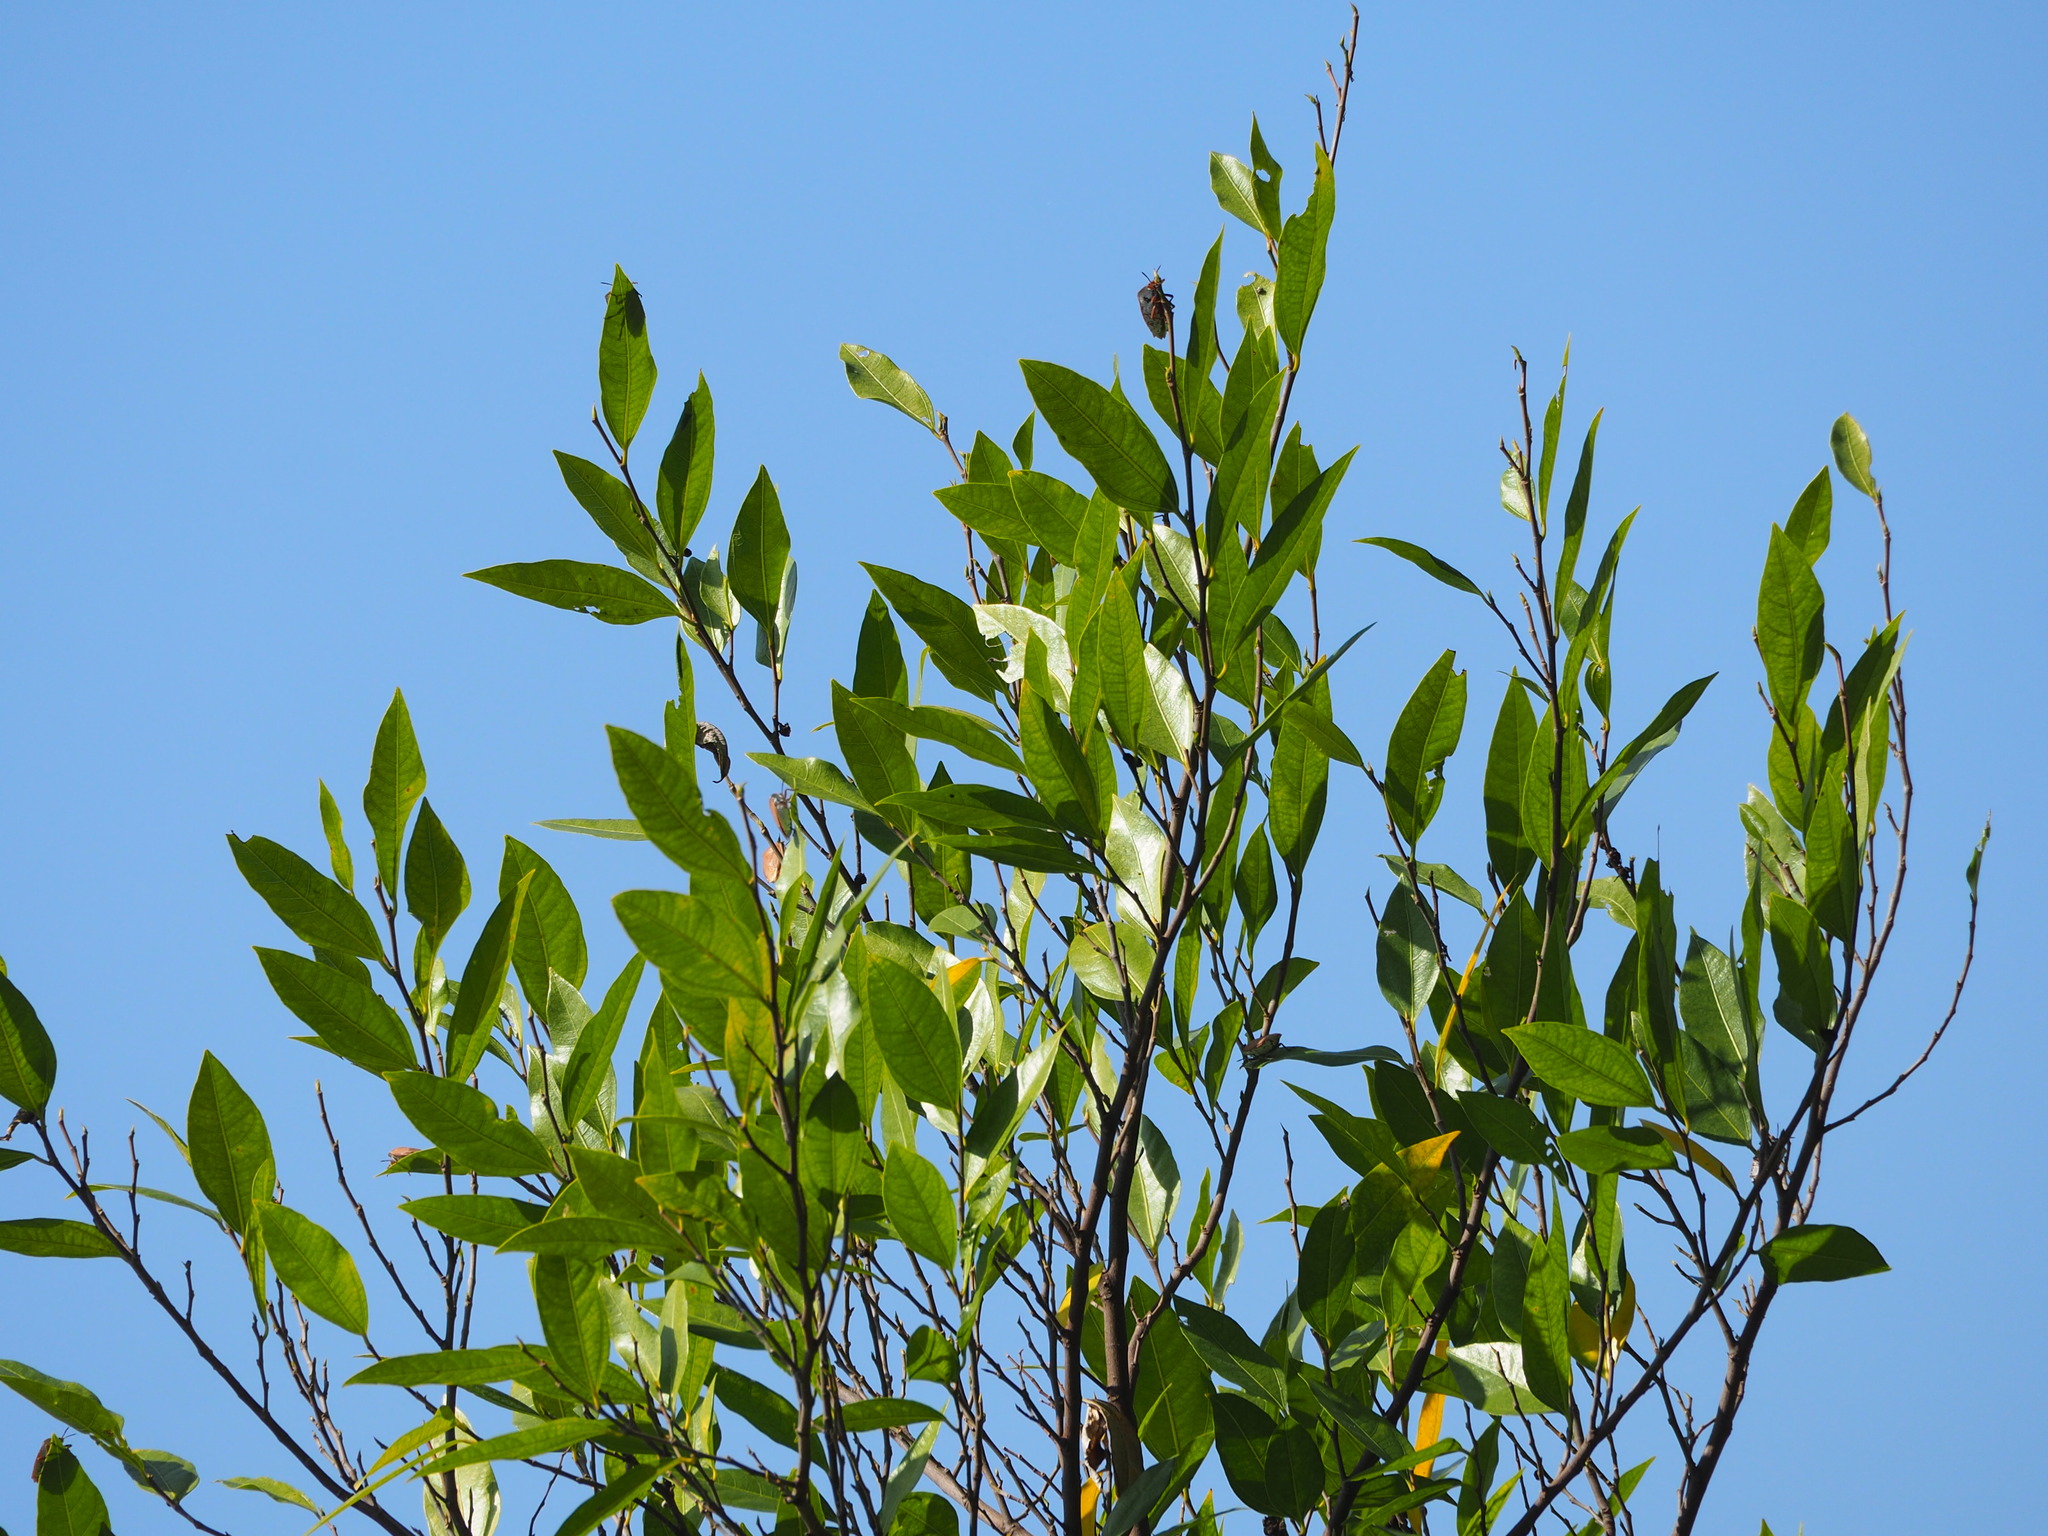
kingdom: Plantae
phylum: Tracheophyta
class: Magnoliopsida
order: Rosales
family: Moraceae
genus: Ficus
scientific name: Ficus ampelos
